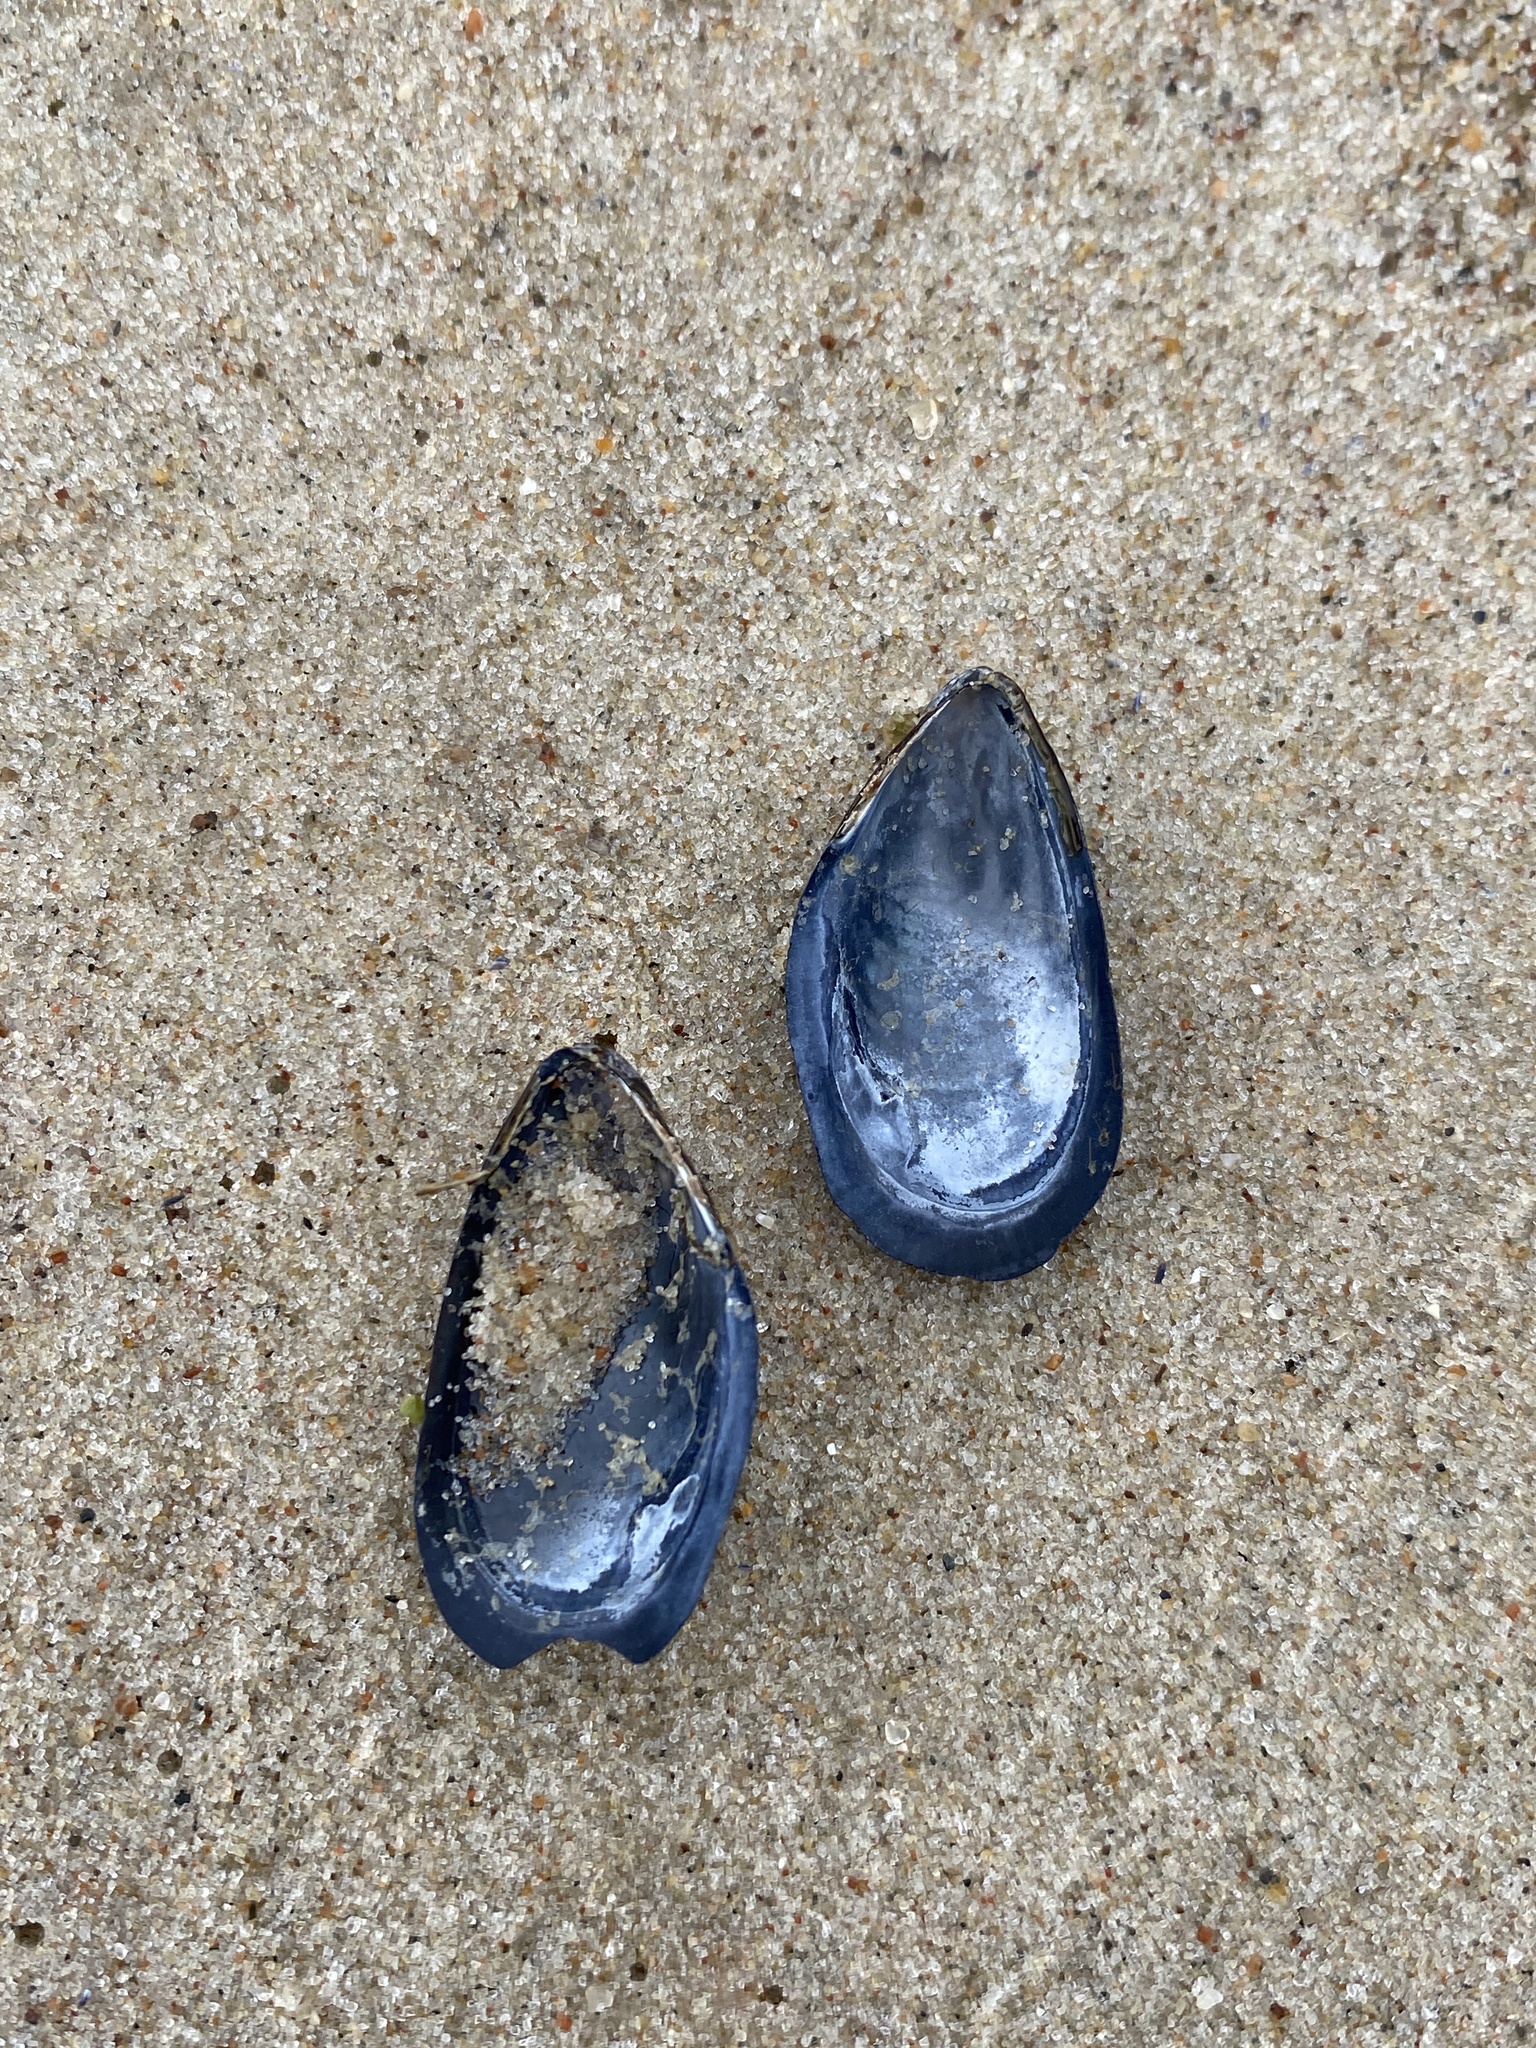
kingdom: Animalia
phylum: Mollusca
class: Bivalvia
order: Mytilida
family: Mytilidae
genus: Mytilus
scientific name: Mytilus
